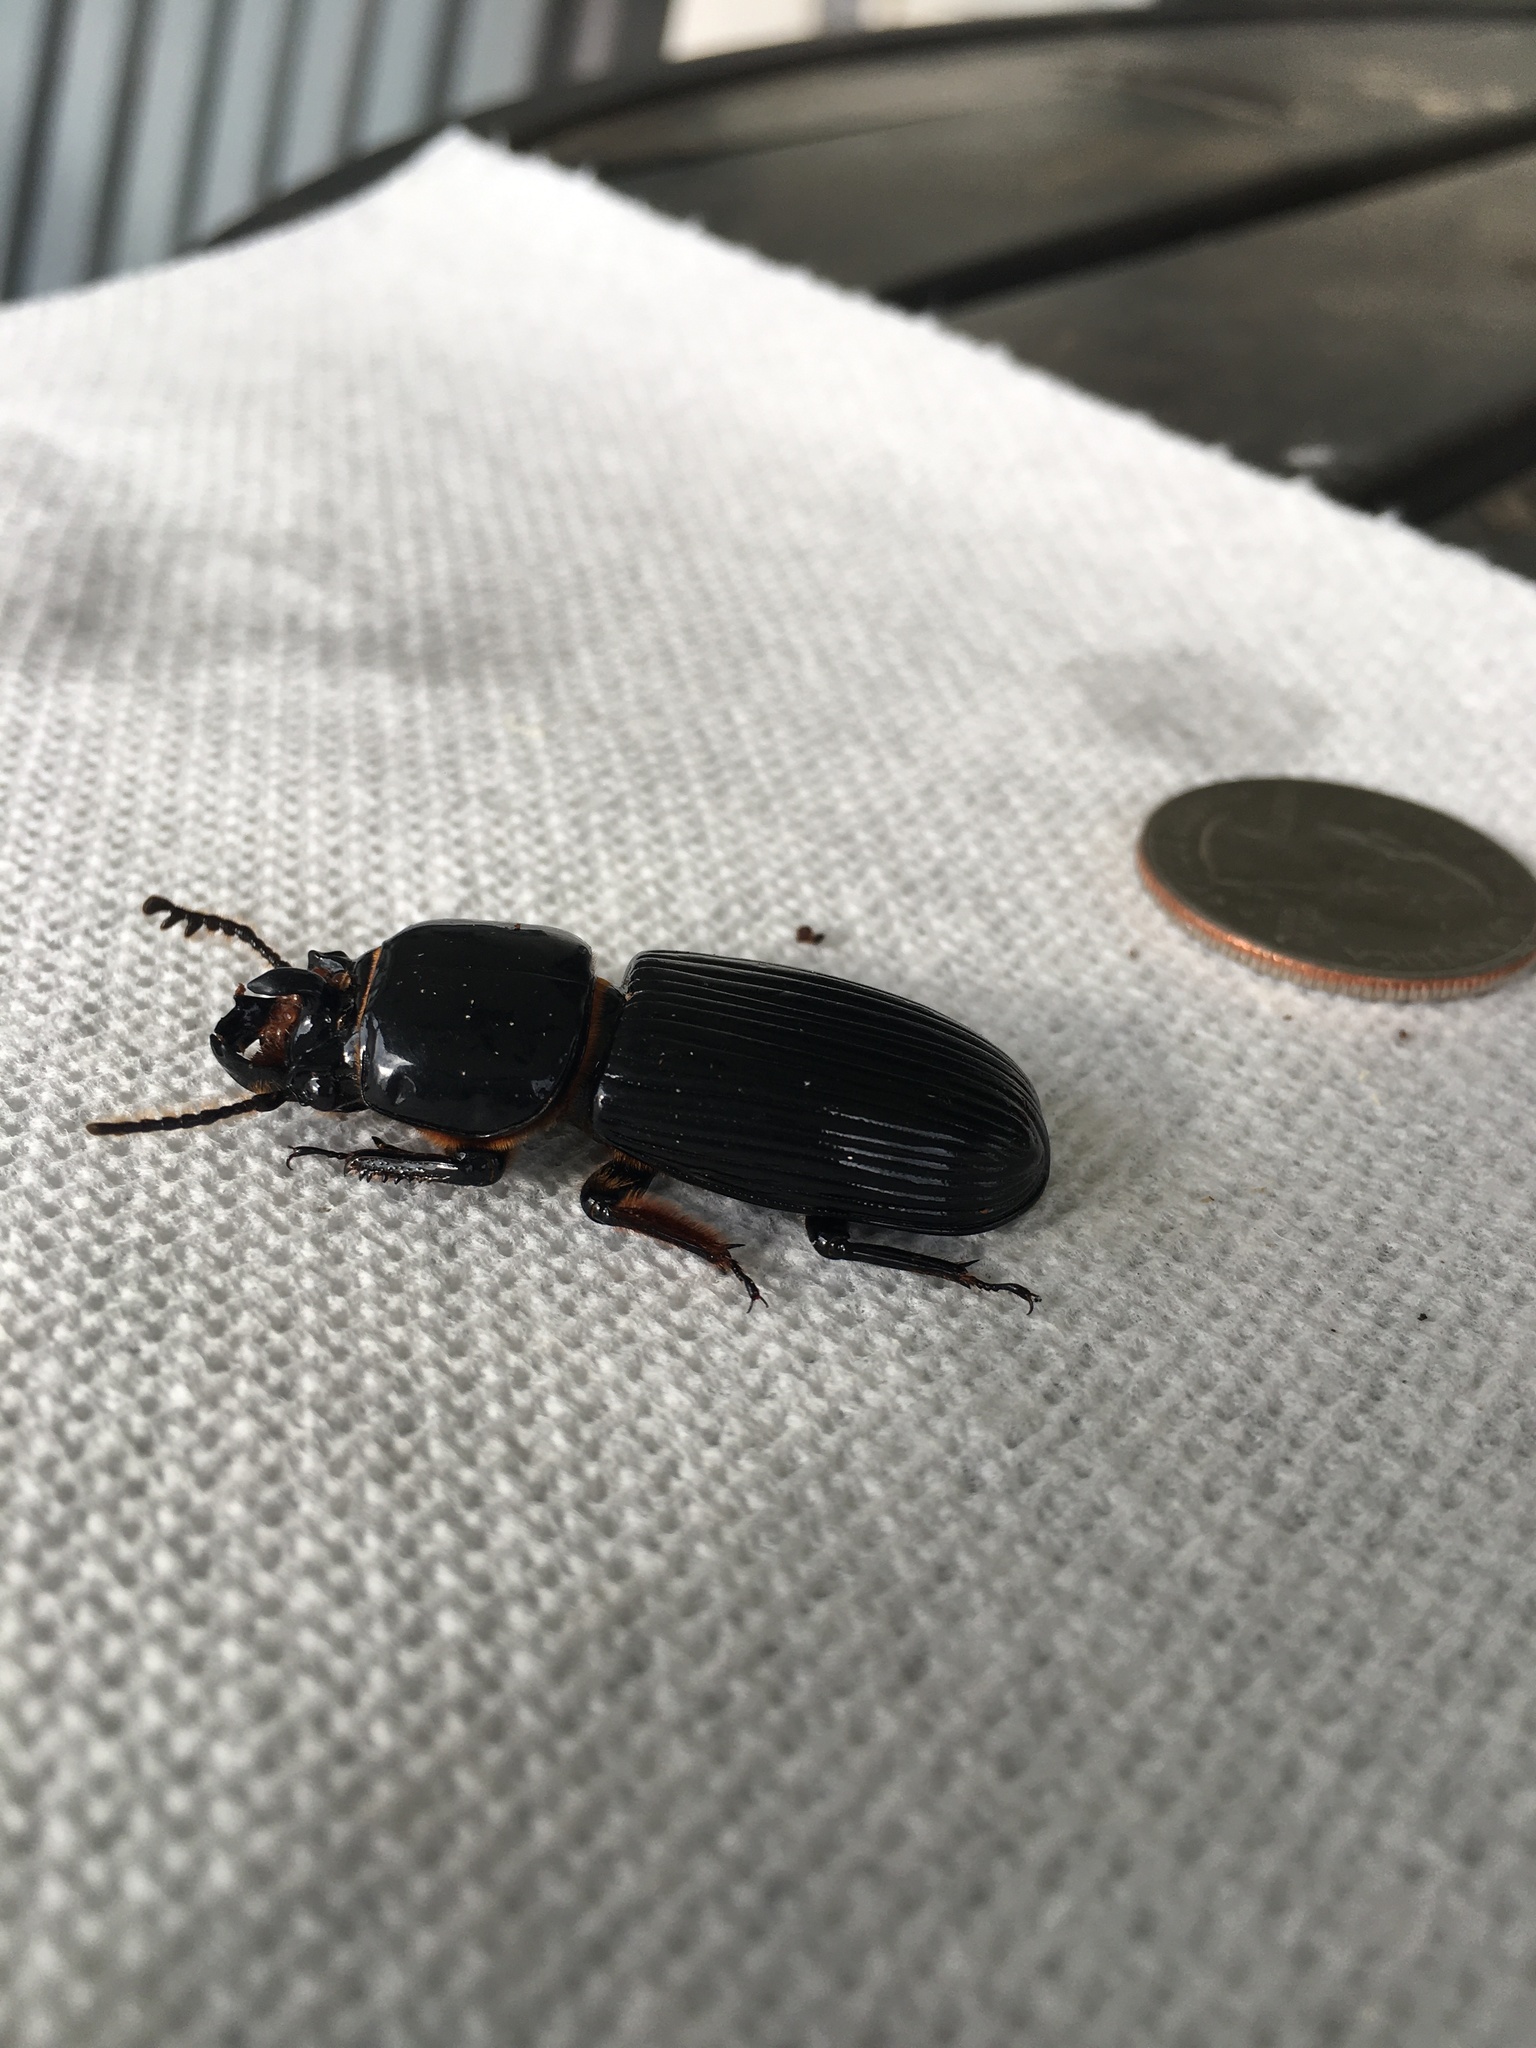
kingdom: Animalia
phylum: Arthropoda
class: Insecta
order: Coleoptera
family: Passalidae
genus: Odontotaenius
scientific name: Odontotaenius disjunctus
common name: Patent leather beetle
